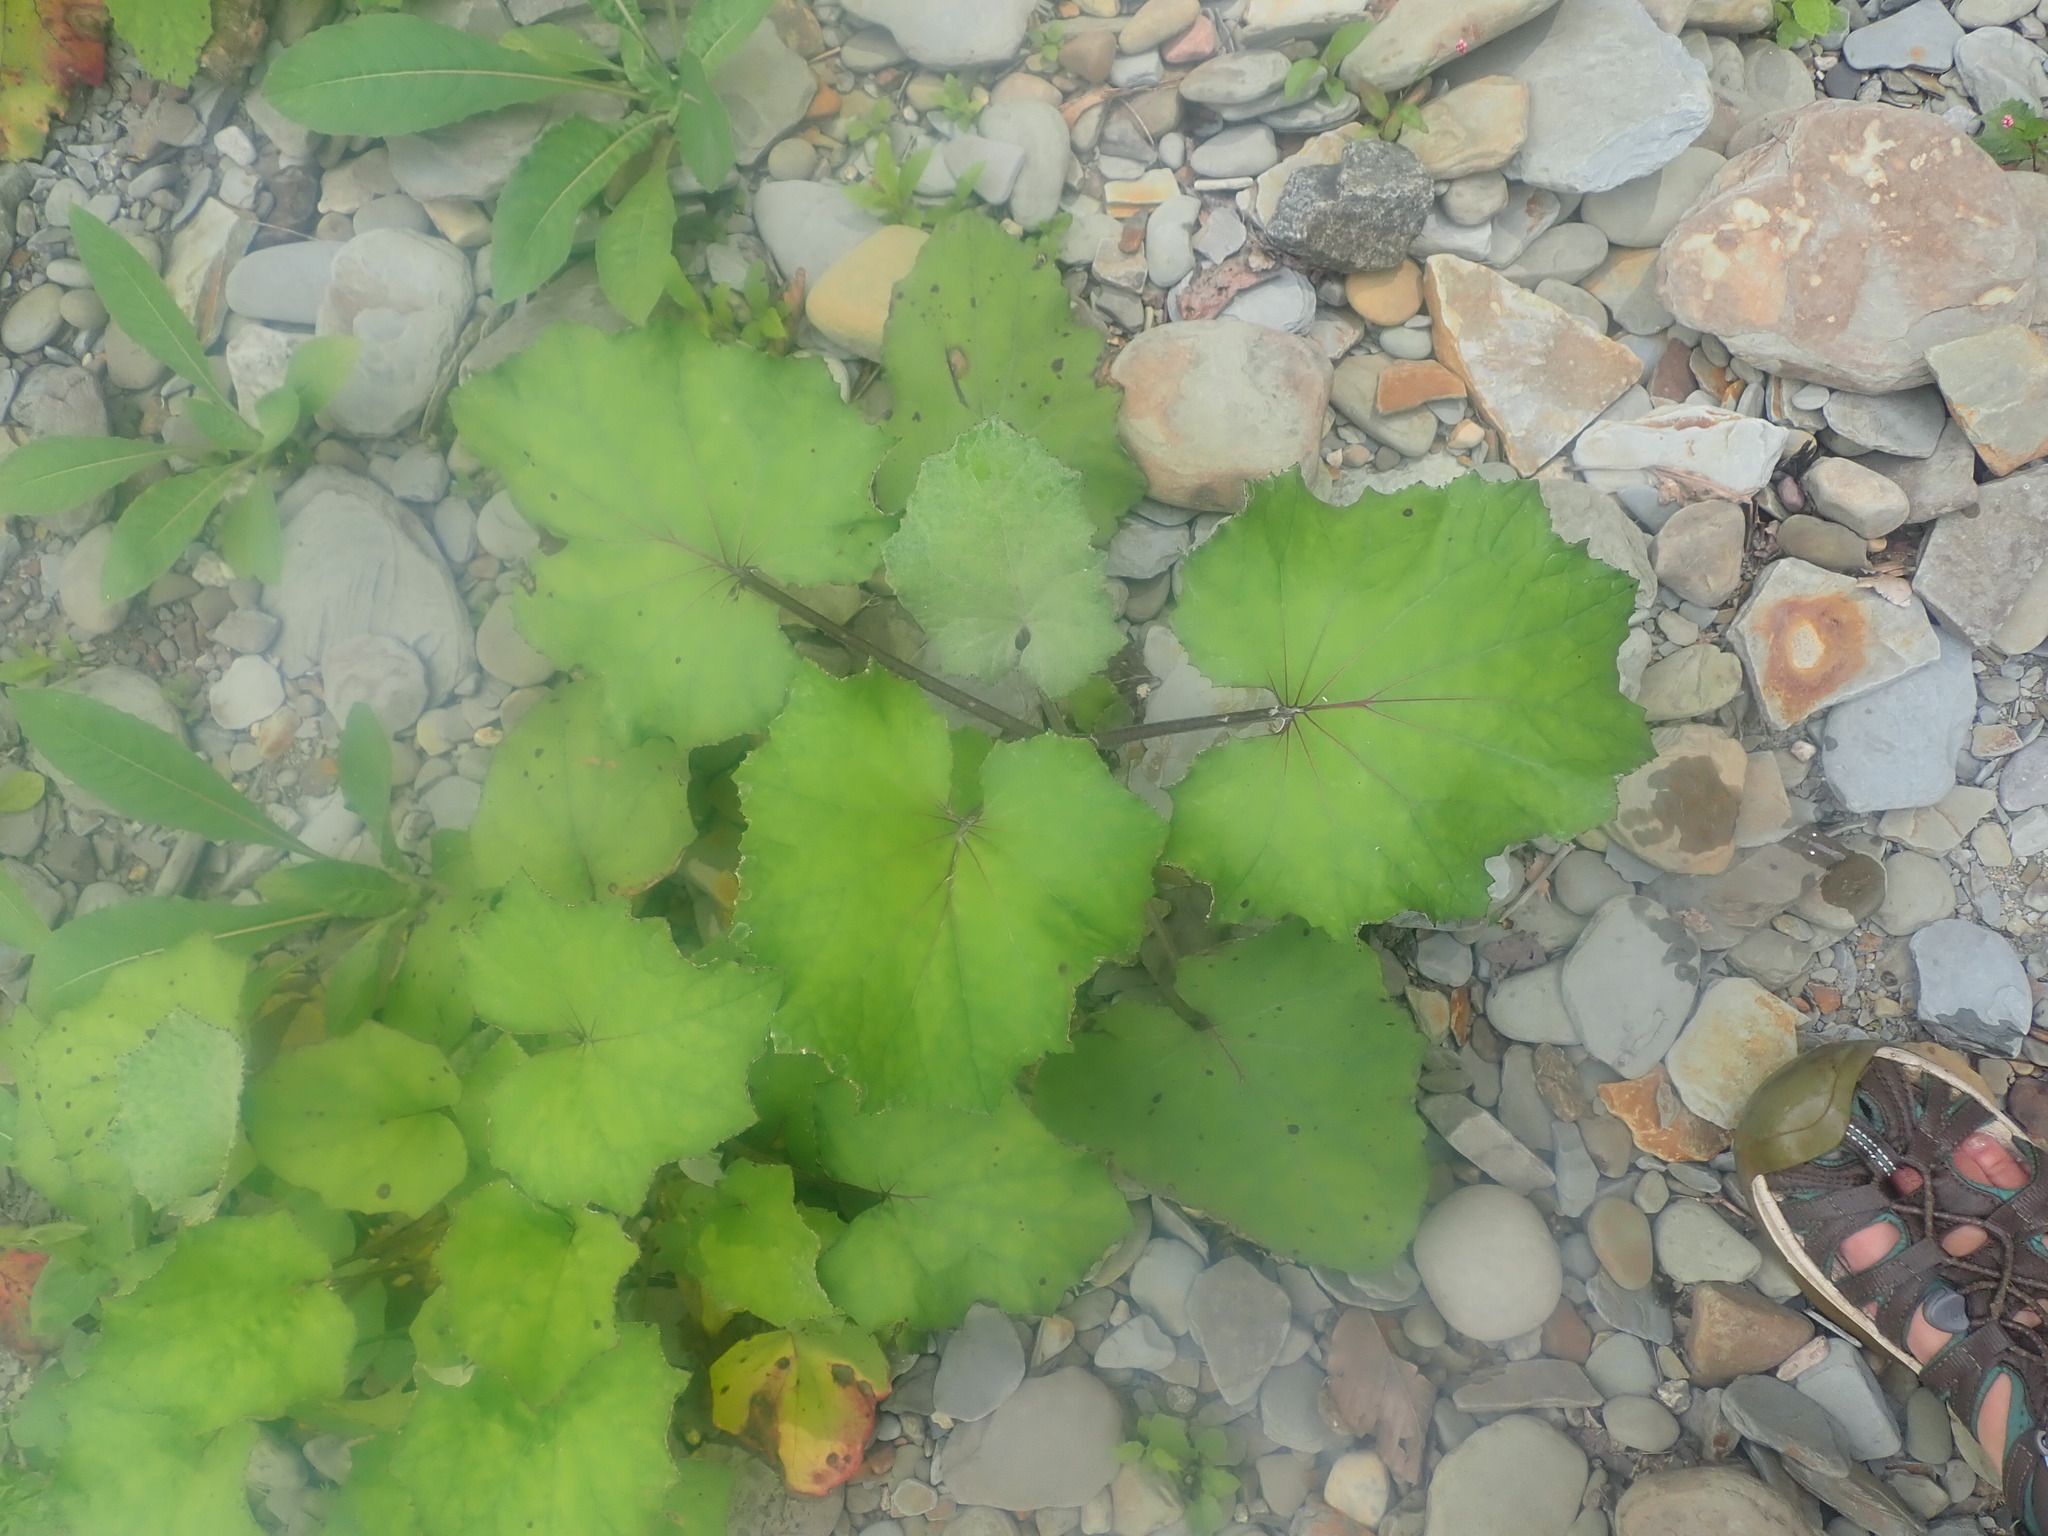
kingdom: Plantae
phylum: Tracheophyta
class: Magnoliopsida
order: Asterales
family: Asteraceae
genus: Tussilago
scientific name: Tussilago farfara
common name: Coltsfoot
